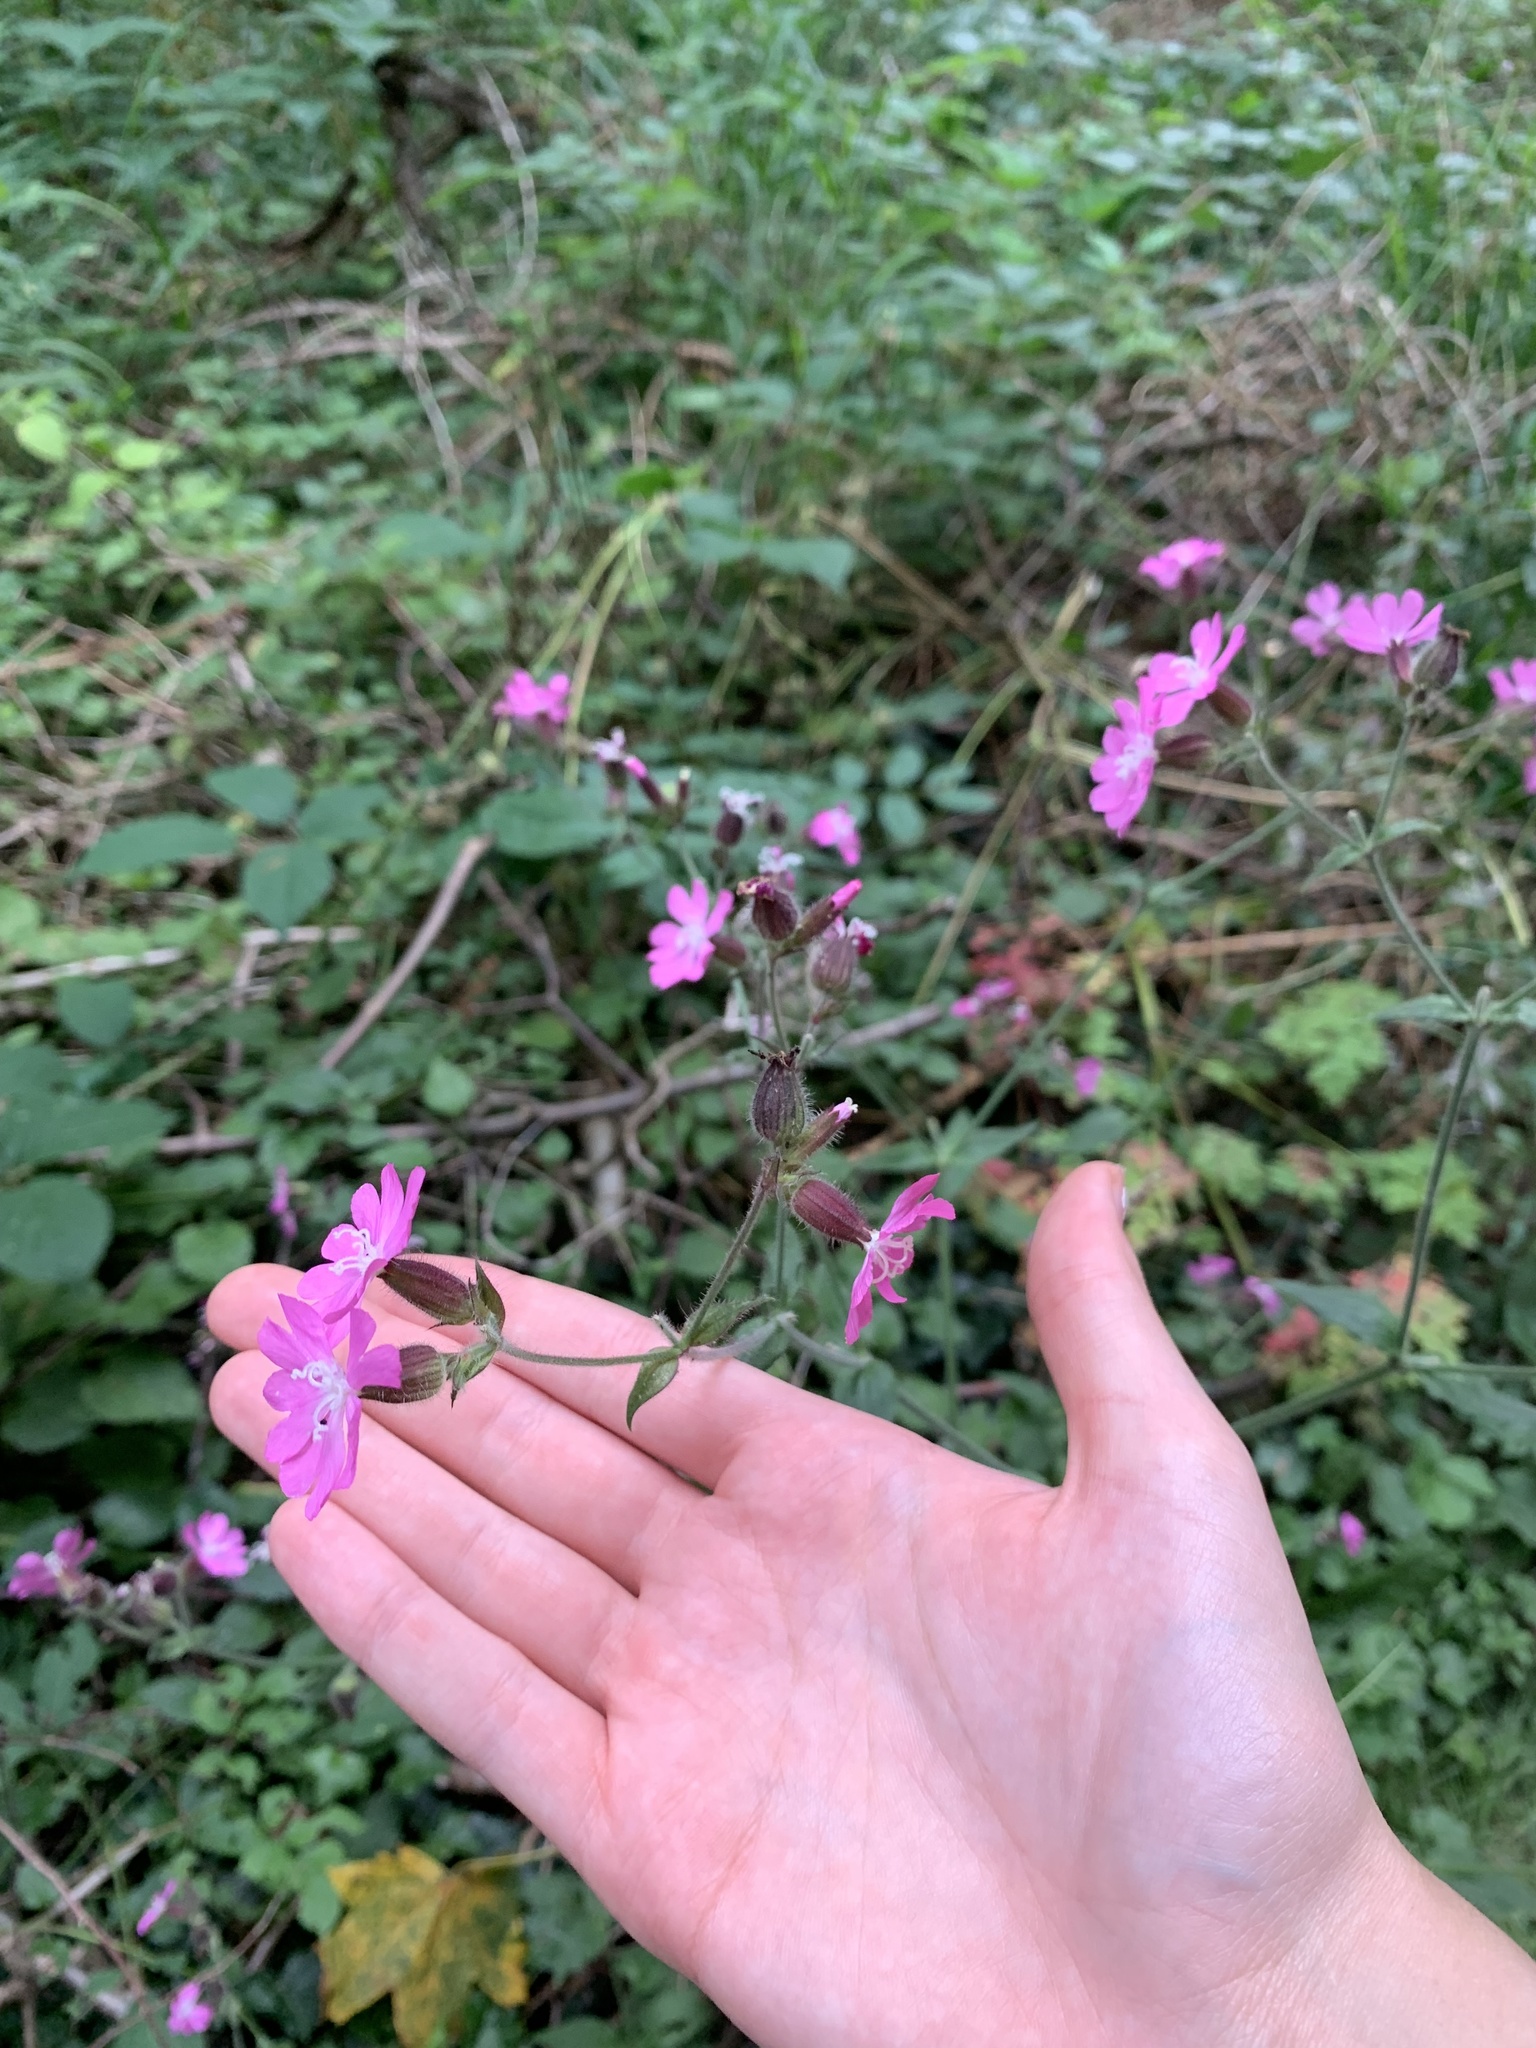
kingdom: Plantae
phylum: Tracheophyta
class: Magnoliopsida
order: Caryophyllales
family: Caryophyllaceae
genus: Silene
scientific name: Silene dioica
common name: Red campion
